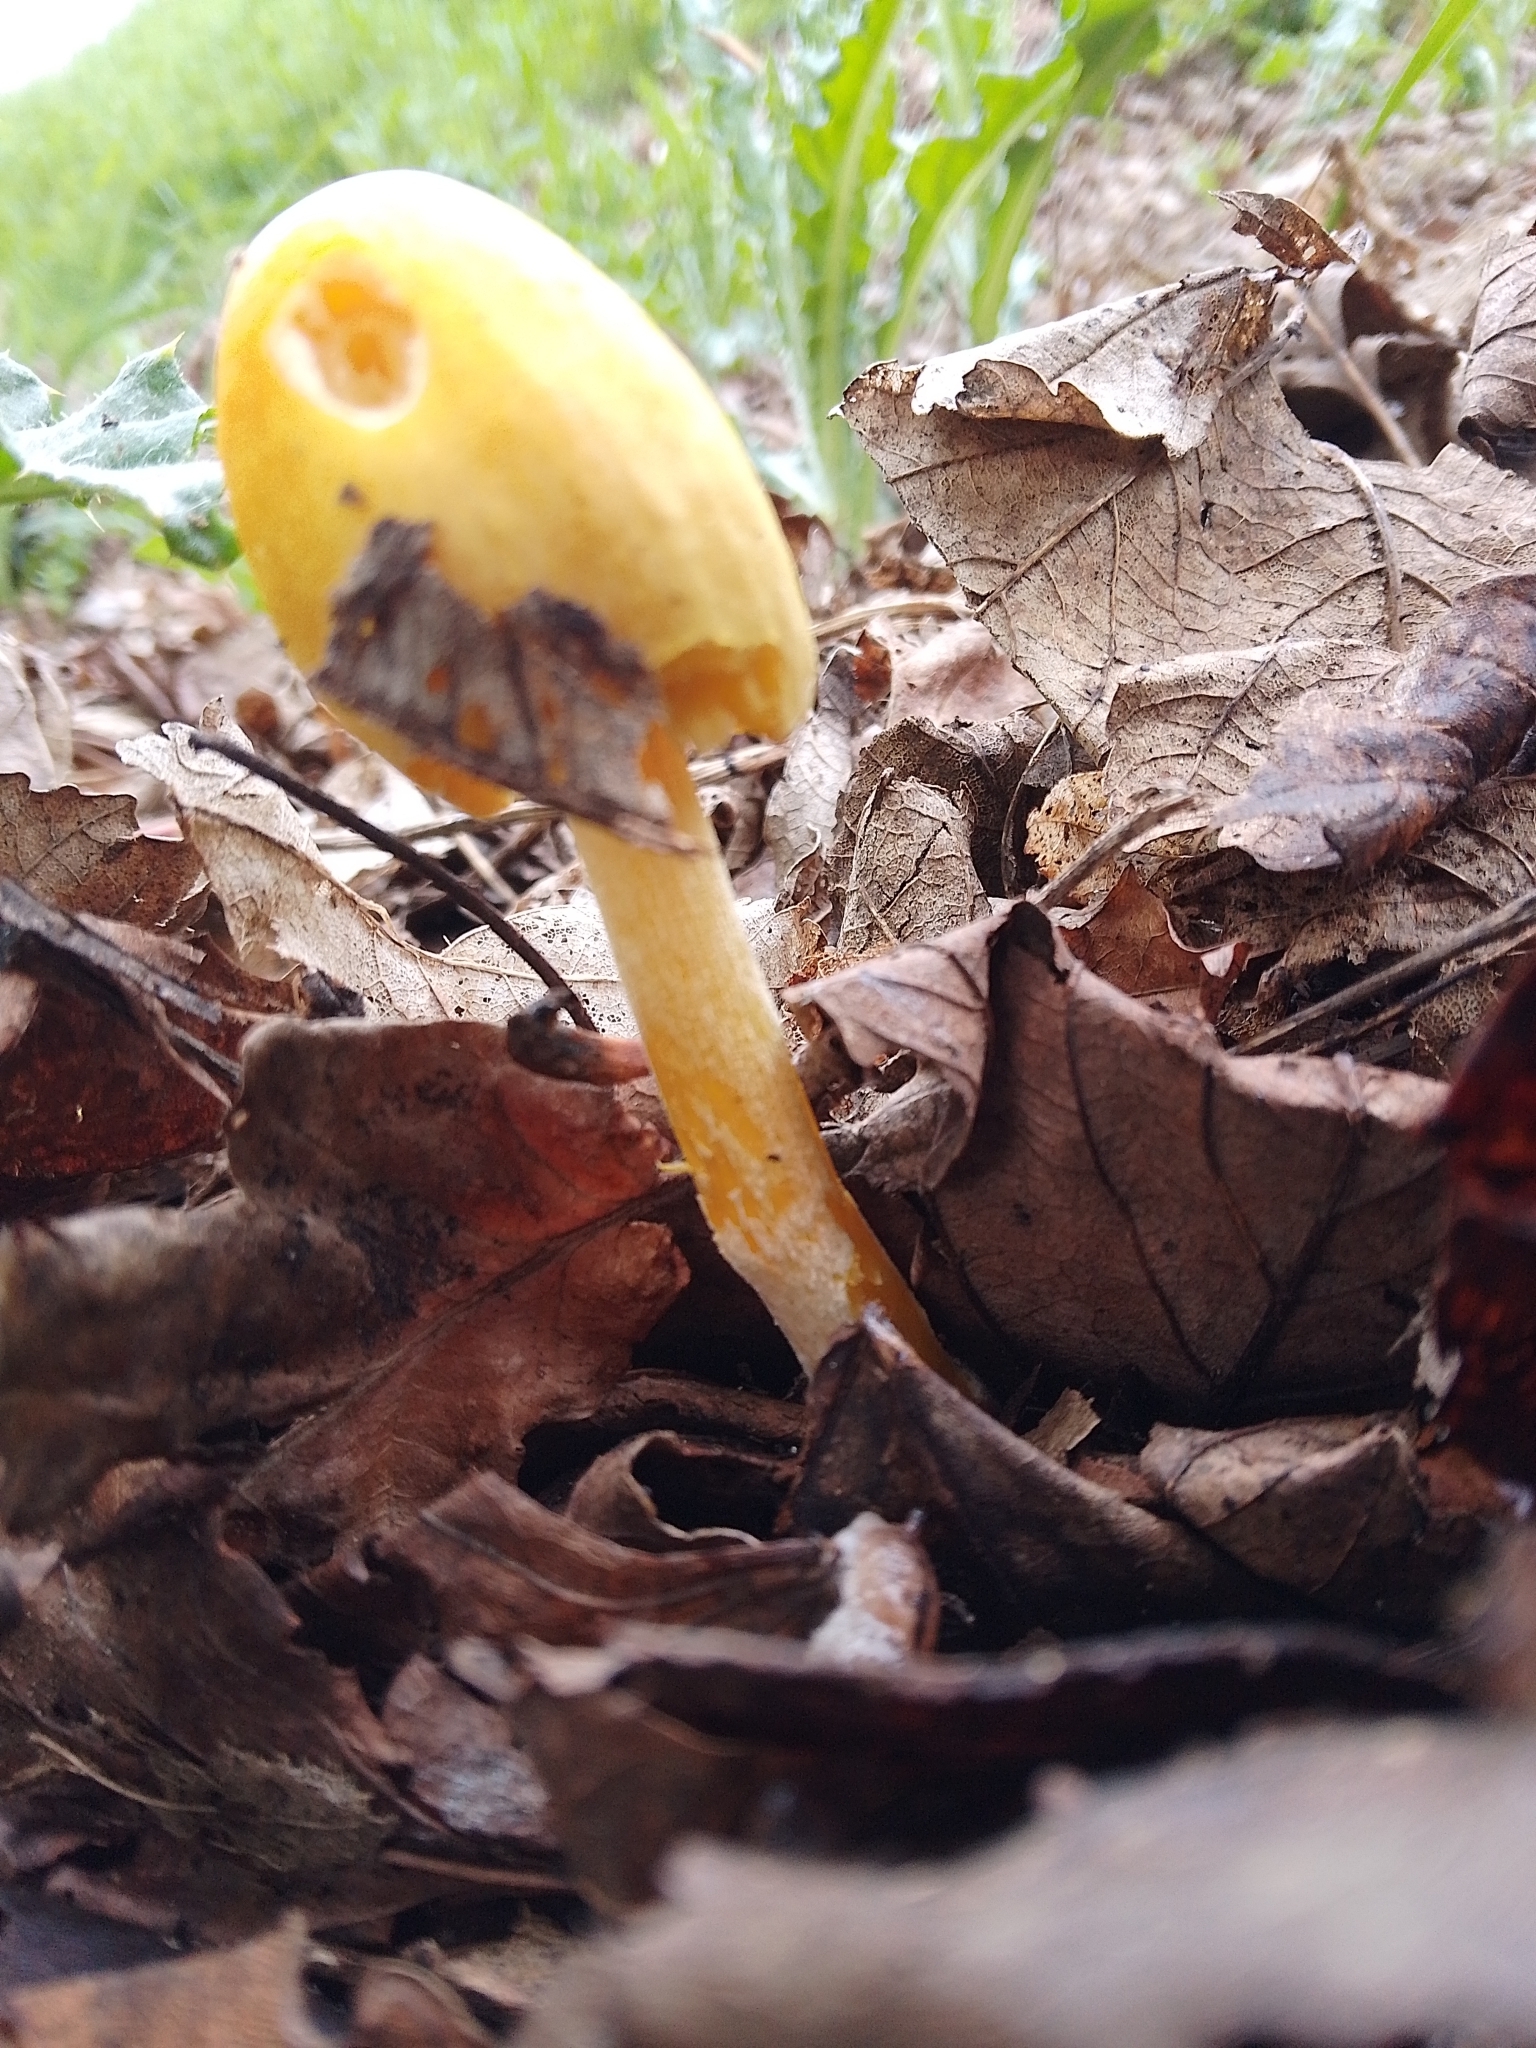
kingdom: Fungi
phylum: Basidiomycota
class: Agaricomycetes
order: Agaricales
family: Bolbitiaceae
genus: Bolbitius
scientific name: Bolbitius titubans
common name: Yellow fieldcap
